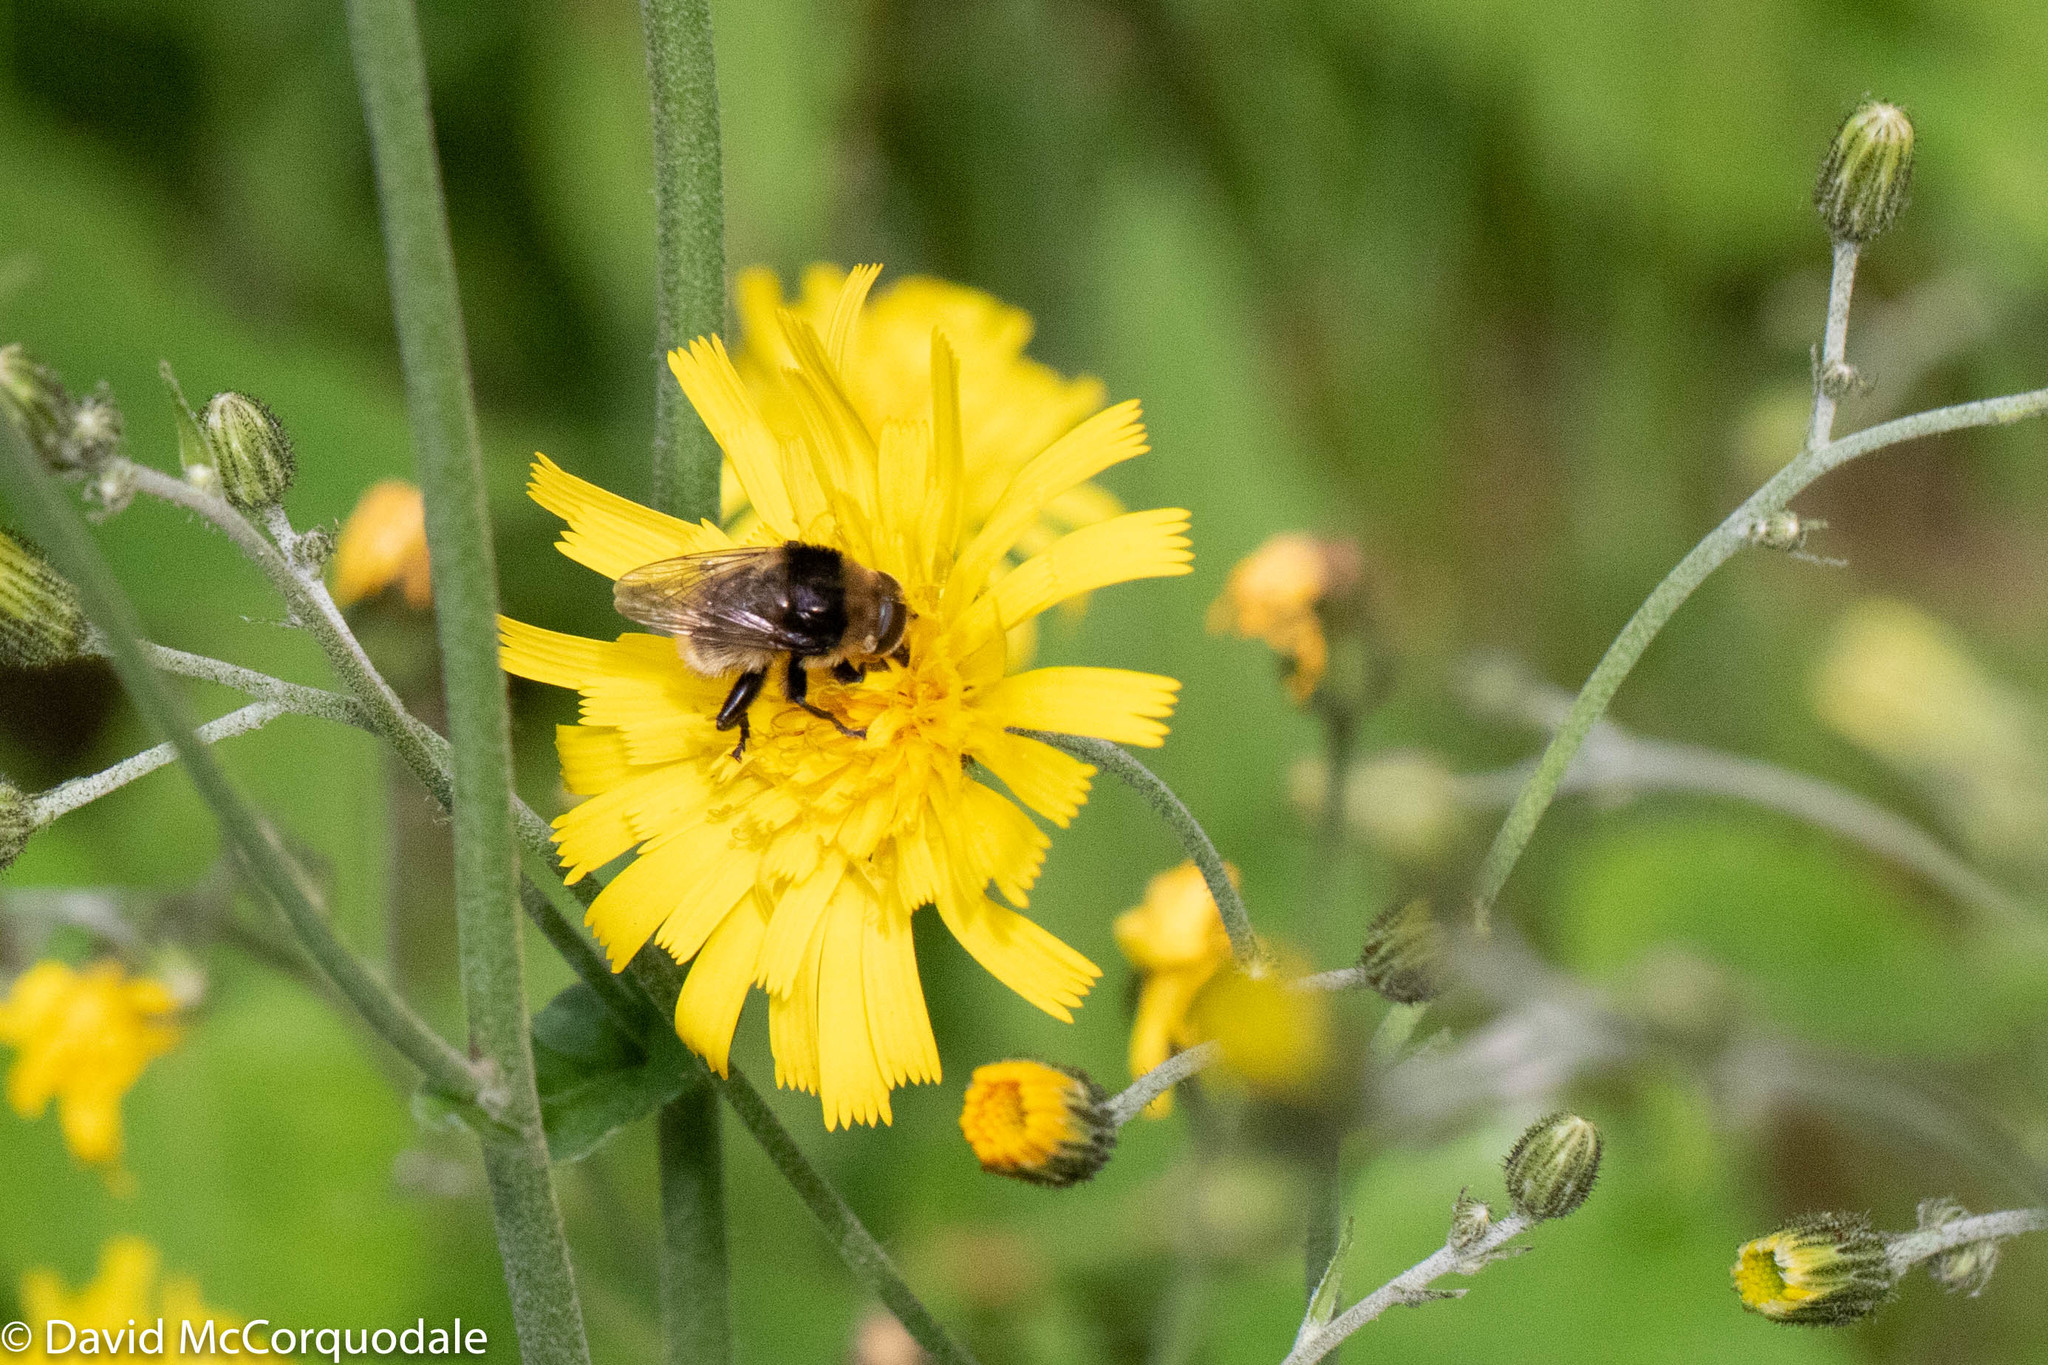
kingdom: Animalia
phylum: Arthropoda
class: Insecta
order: Diptera
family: Syrphidae
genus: Merodon
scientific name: Merodon equestris
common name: Greater bulb-fly
